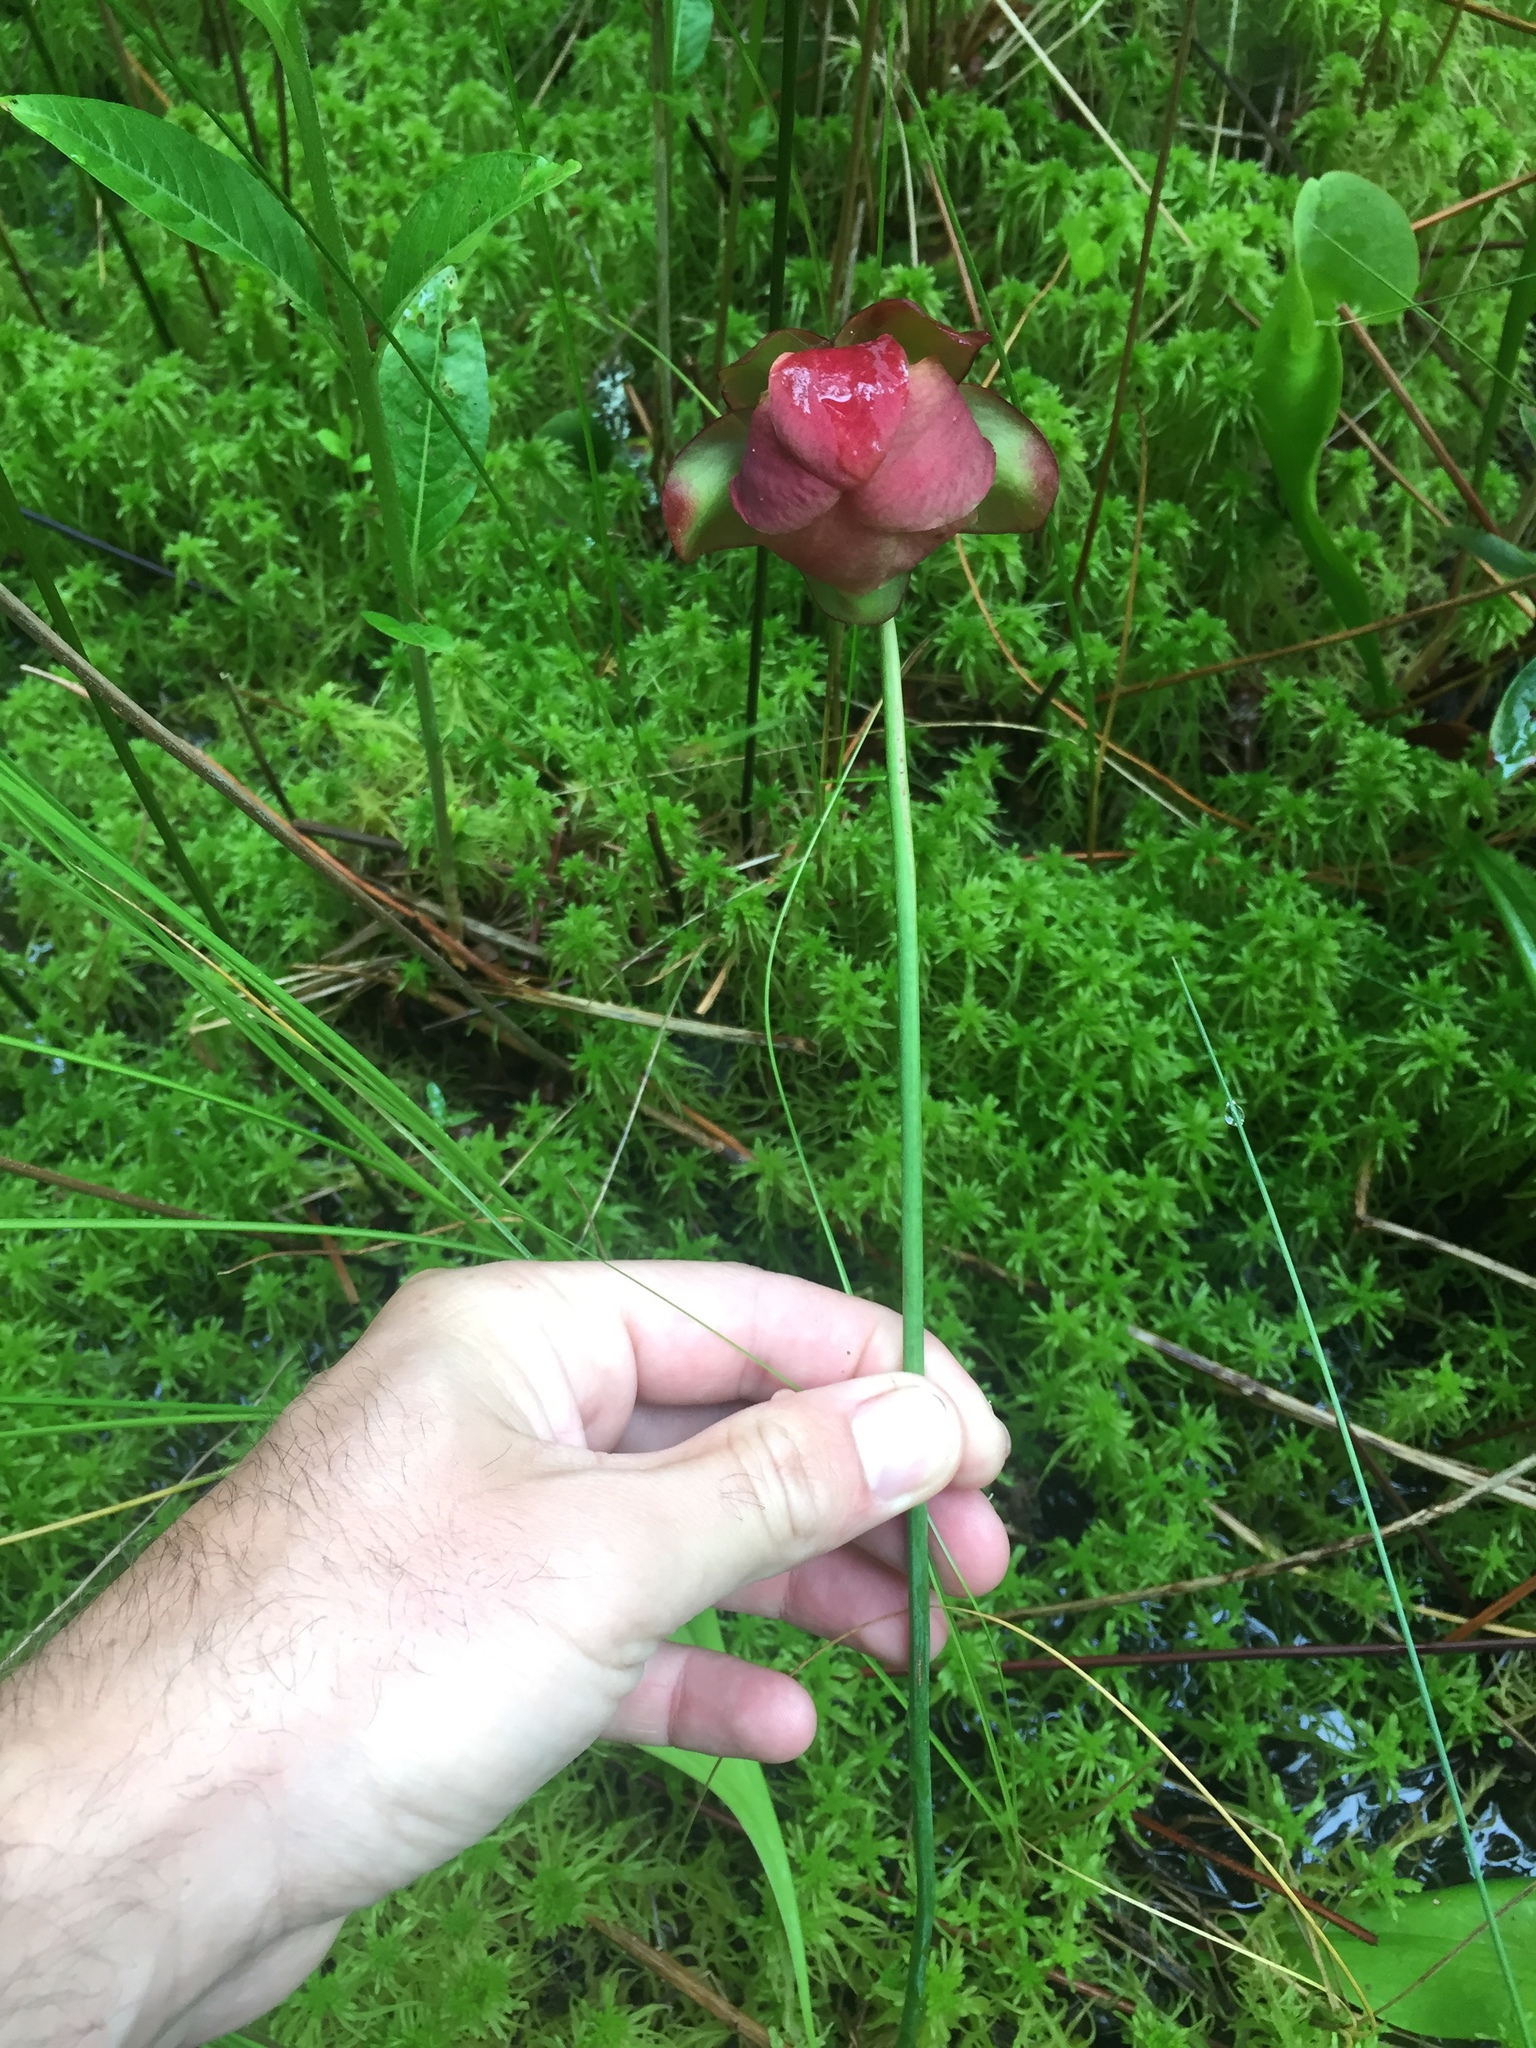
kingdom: Plantae
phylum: Tracheophyta
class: Magnoliopsida
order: Ericales
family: Sarraceniaceae
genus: Sarracenia
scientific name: Sarracenia purpurea
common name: Pitcherplant
